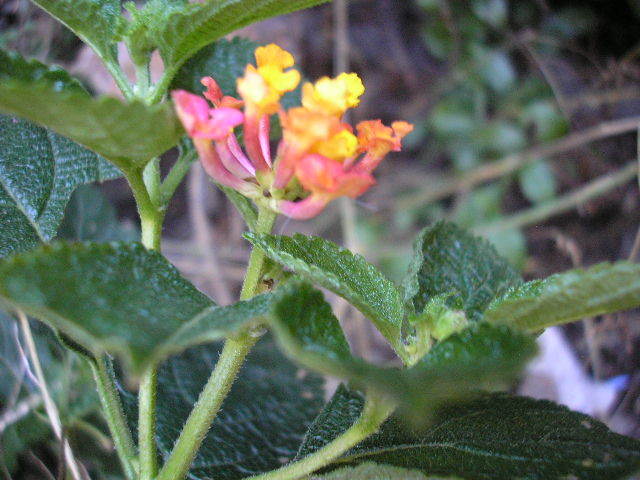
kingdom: Plantae
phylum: Tracheophyta
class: Magnoliopsida
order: Lamiales
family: Verbenaceae
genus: Lantana
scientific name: Lantana camara
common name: Lantana
